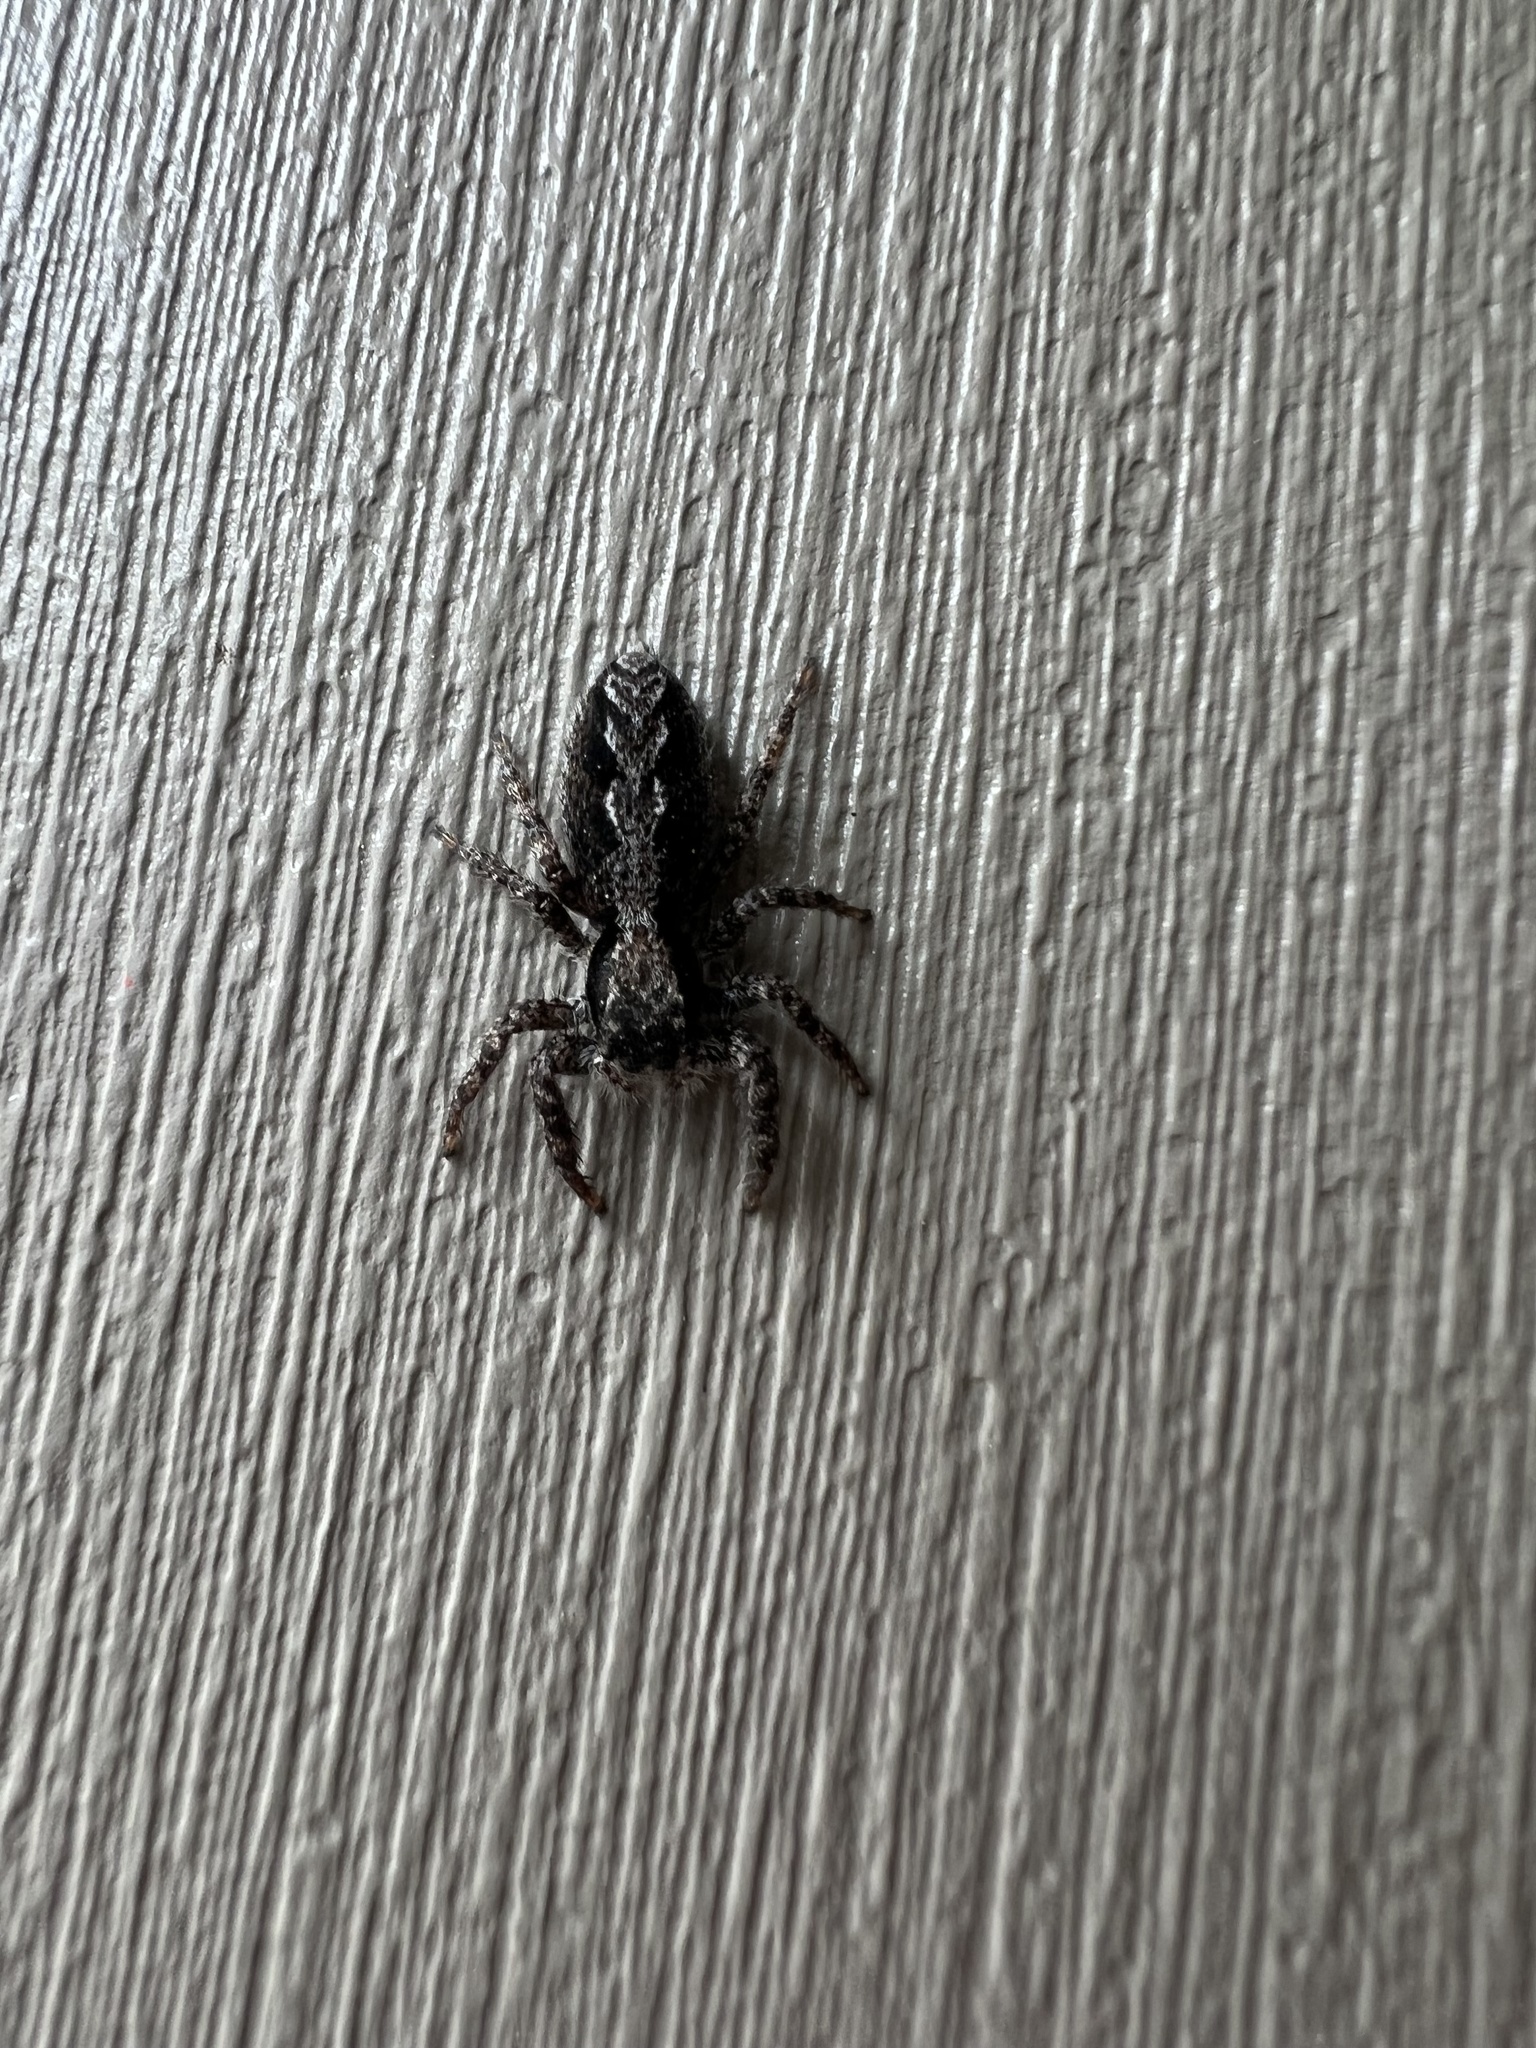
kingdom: Animalia
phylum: Arthropoda
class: Arachnida
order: Araneae
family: Salticidae
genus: Platycryptus
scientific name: Platycryptus californicus
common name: Jumping spiders
